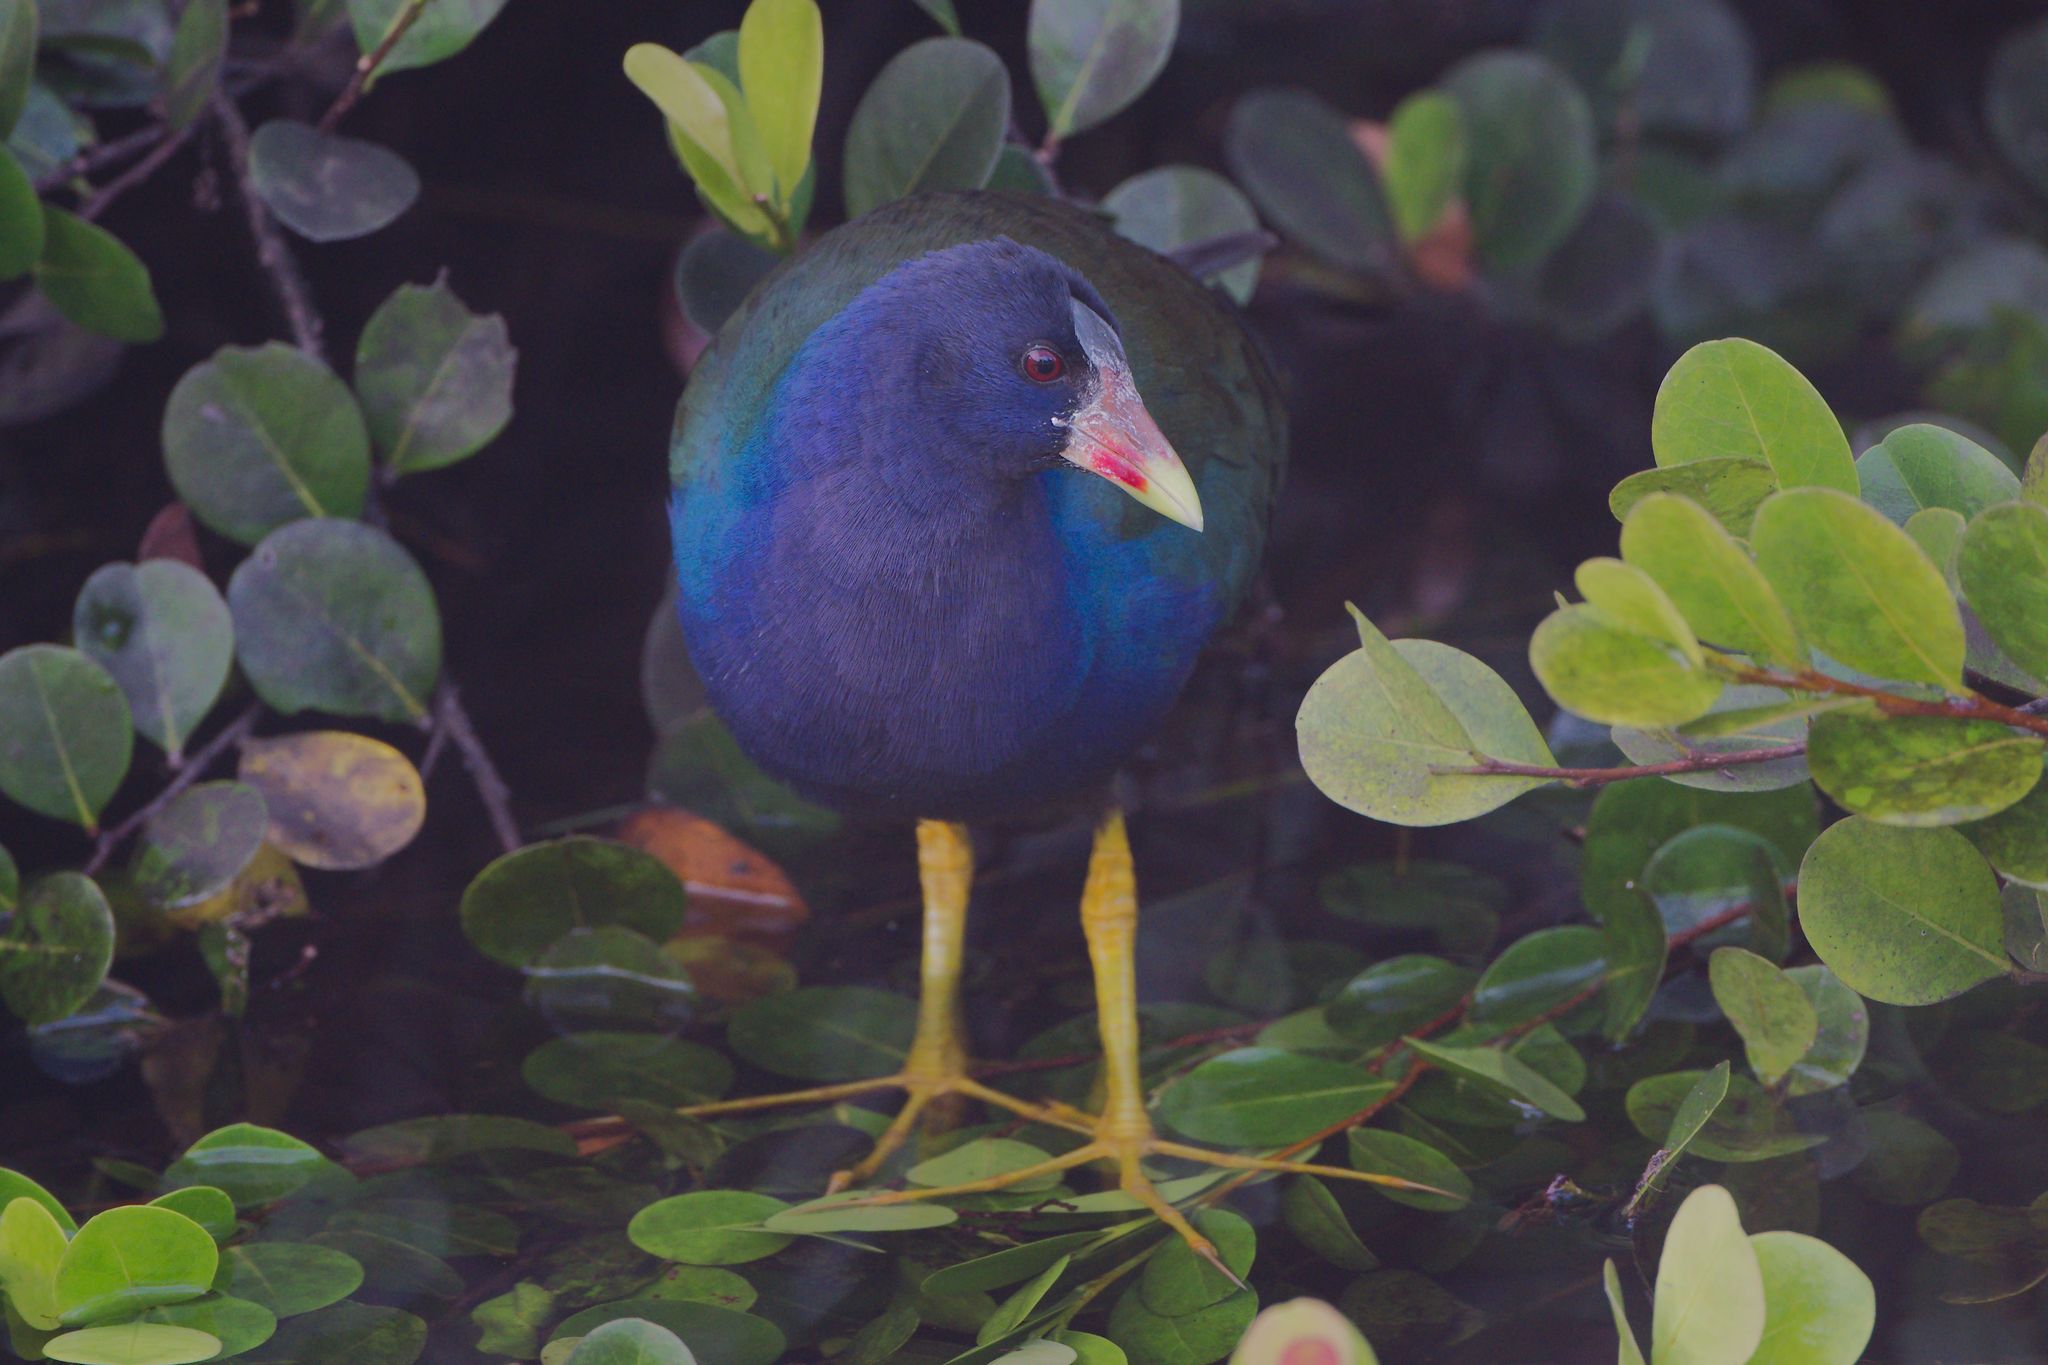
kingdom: Animalia
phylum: Chordata
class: Aves
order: Gruiformes
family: Rallidae
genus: Porphyrio
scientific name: Porphyrio martinica
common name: Purple gallinule
